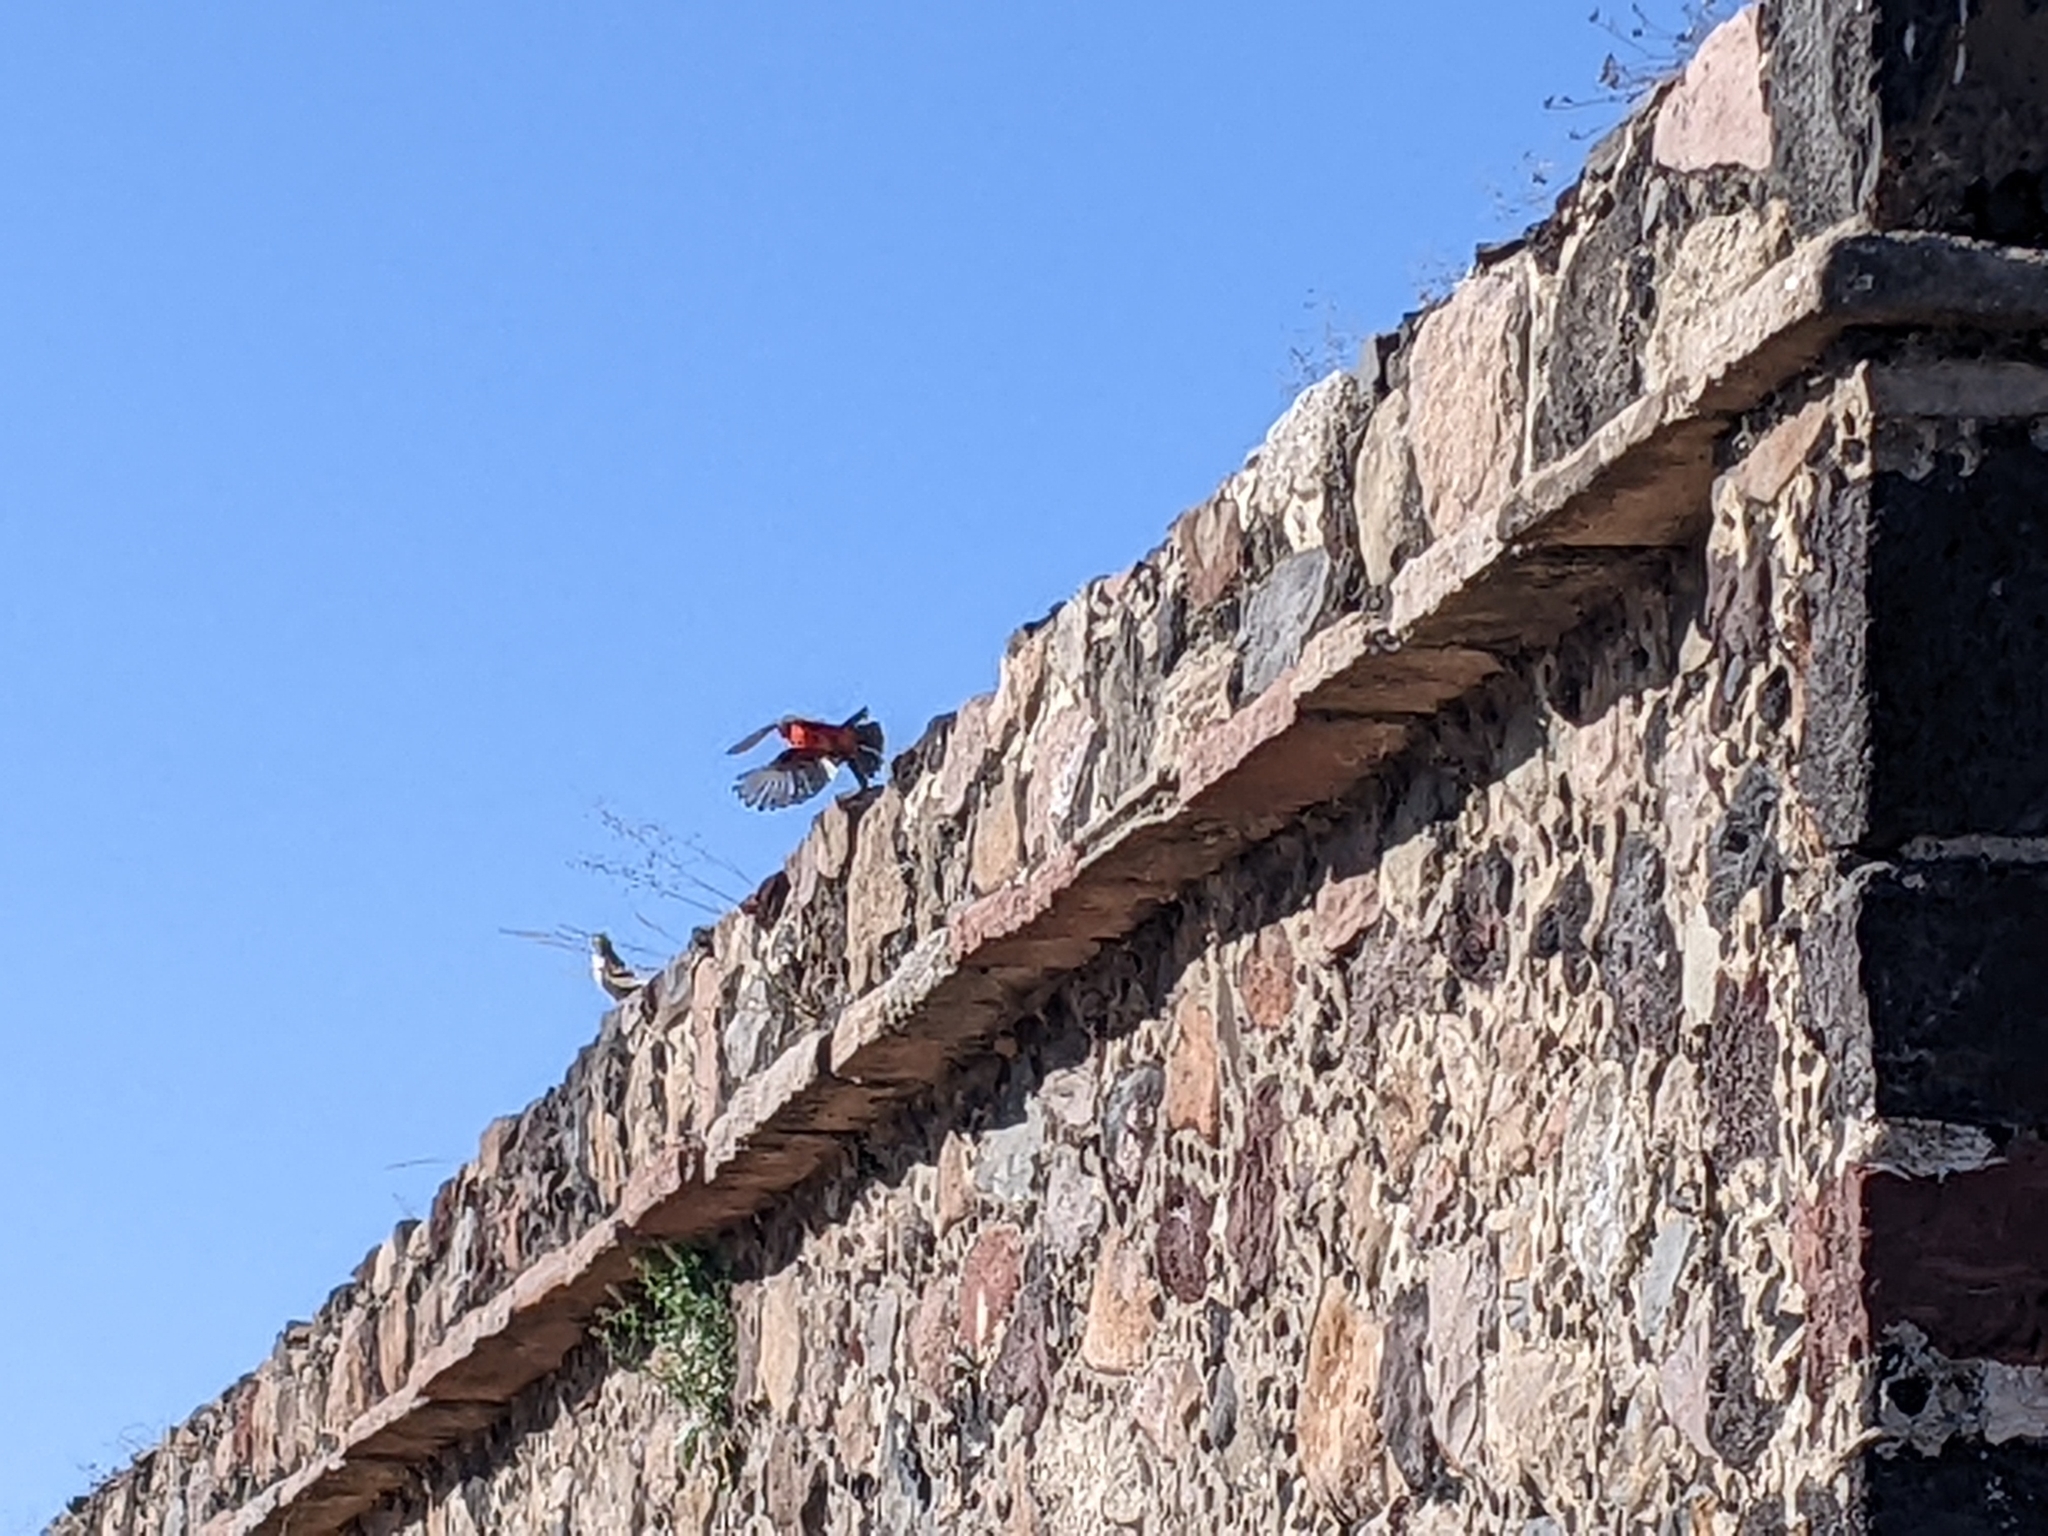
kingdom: Animalia
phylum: Chordata
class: Aves
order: Passeriformes
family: Tyrannidae
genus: Pyrocephalus
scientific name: Pyrocephalus rubinus
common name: Vermilion flycatcher
